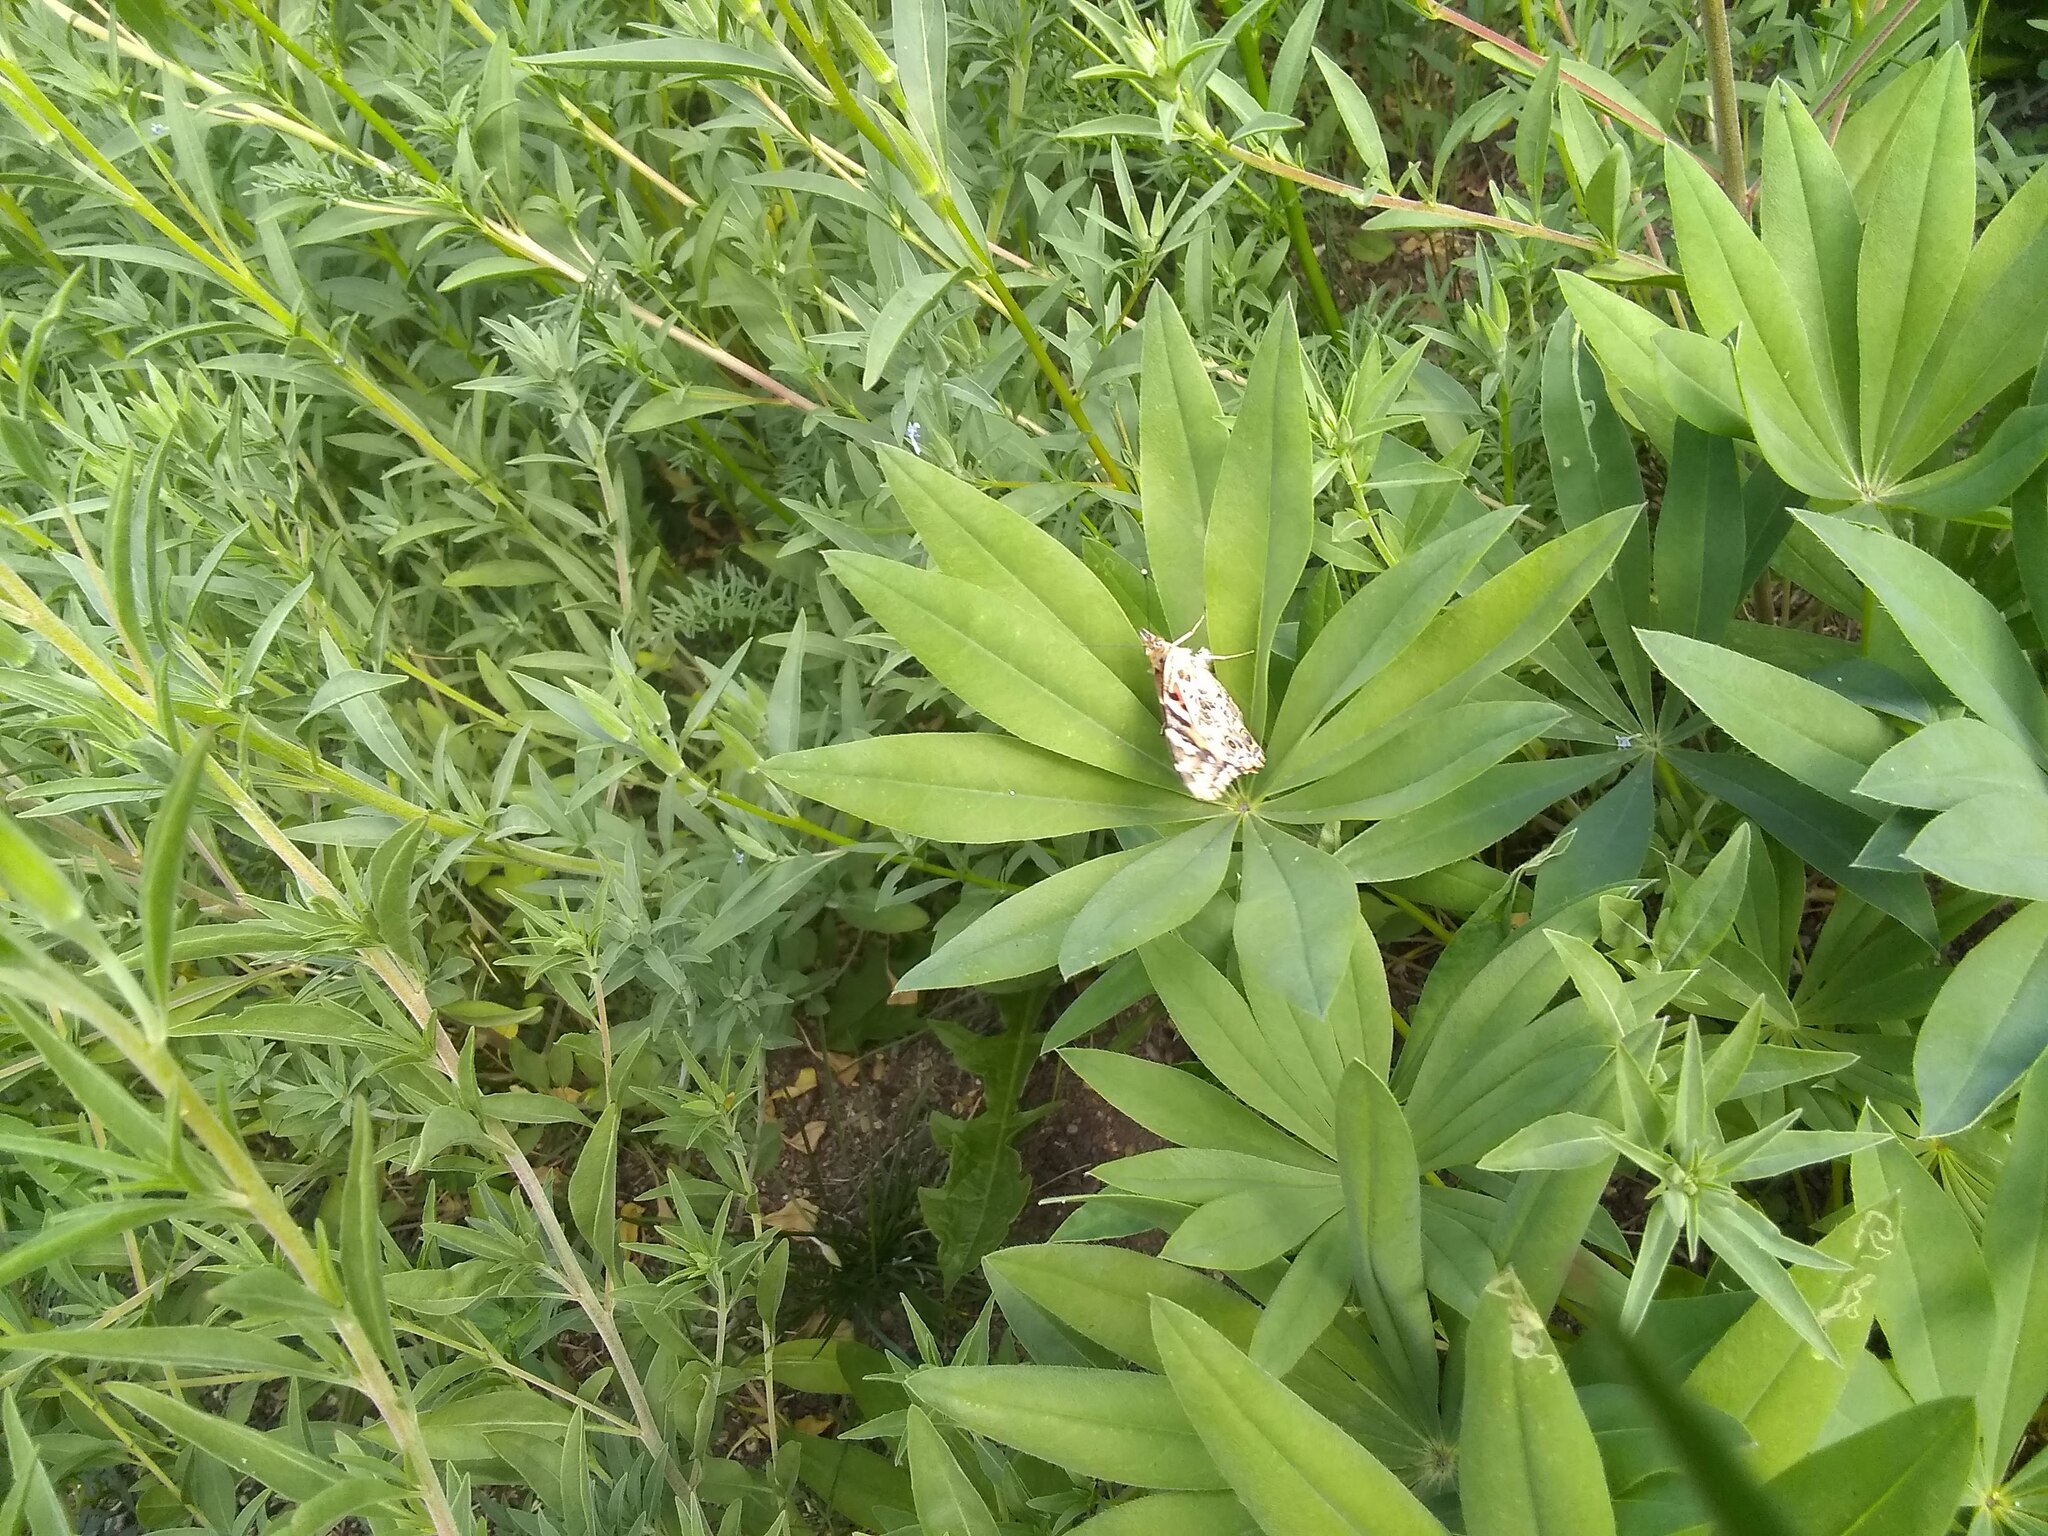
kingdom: Animalia
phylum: Arthropoda
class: Insecta
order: Lepidoptera
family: Nymphalidae
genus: Vanessa
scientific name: Vanessa cardui
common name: Painted lady
